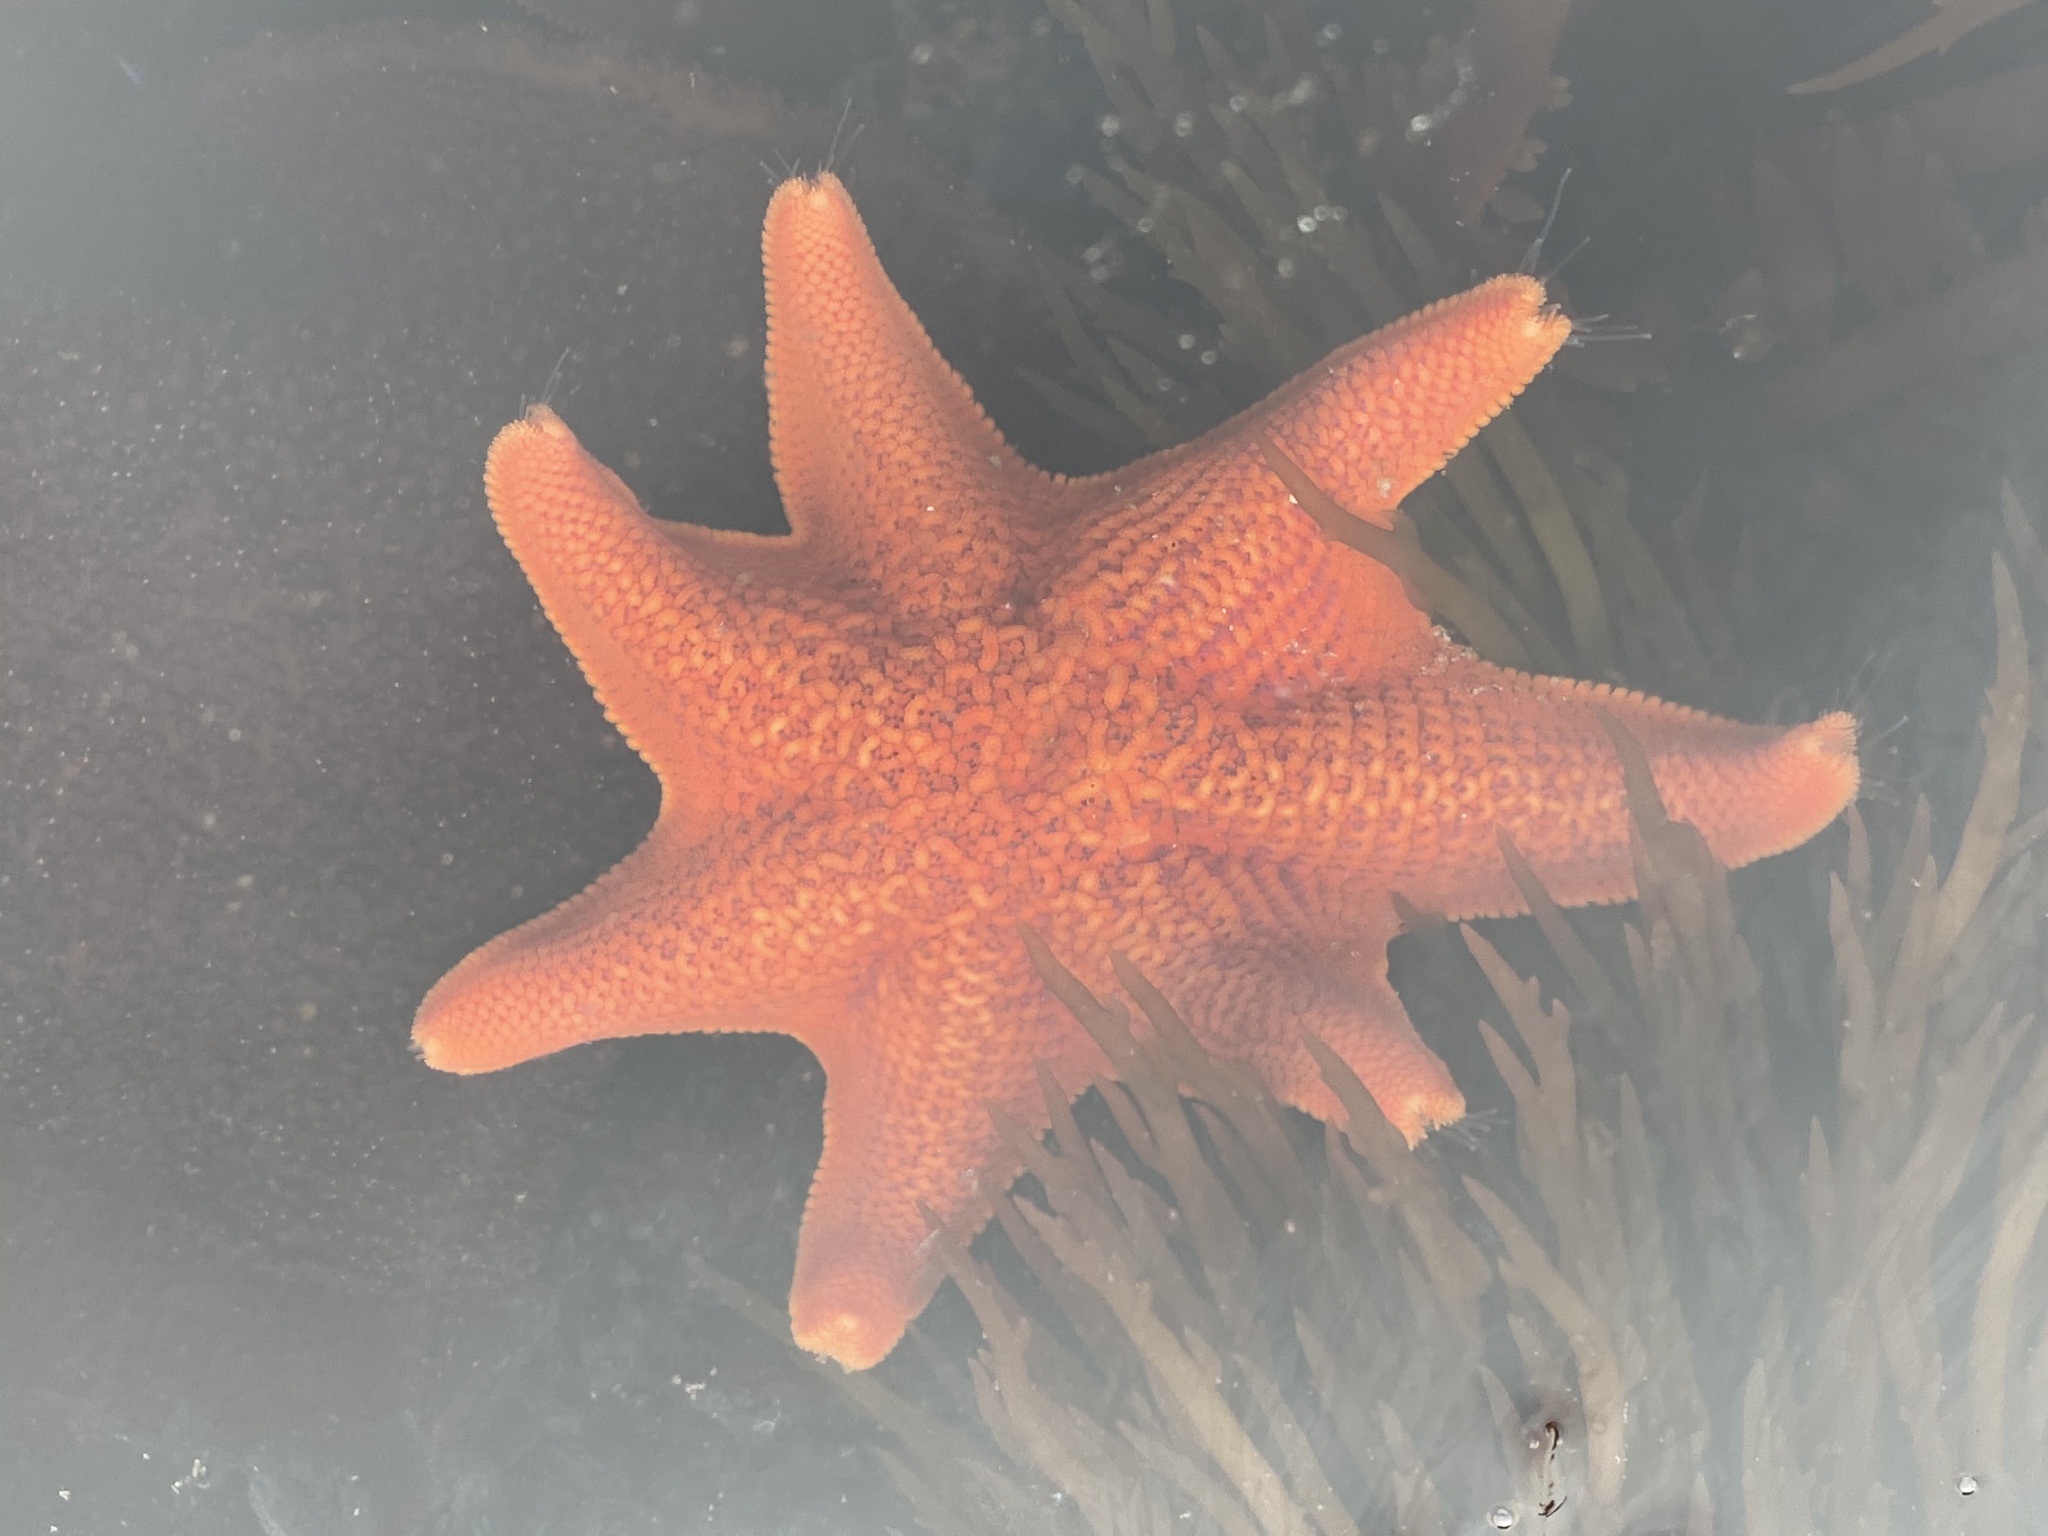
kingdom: Animalia
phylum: Echinodermata
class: Asteroidea
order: Valvatida
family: Asterinidae
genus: Patiria
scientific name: Patiria miniata
